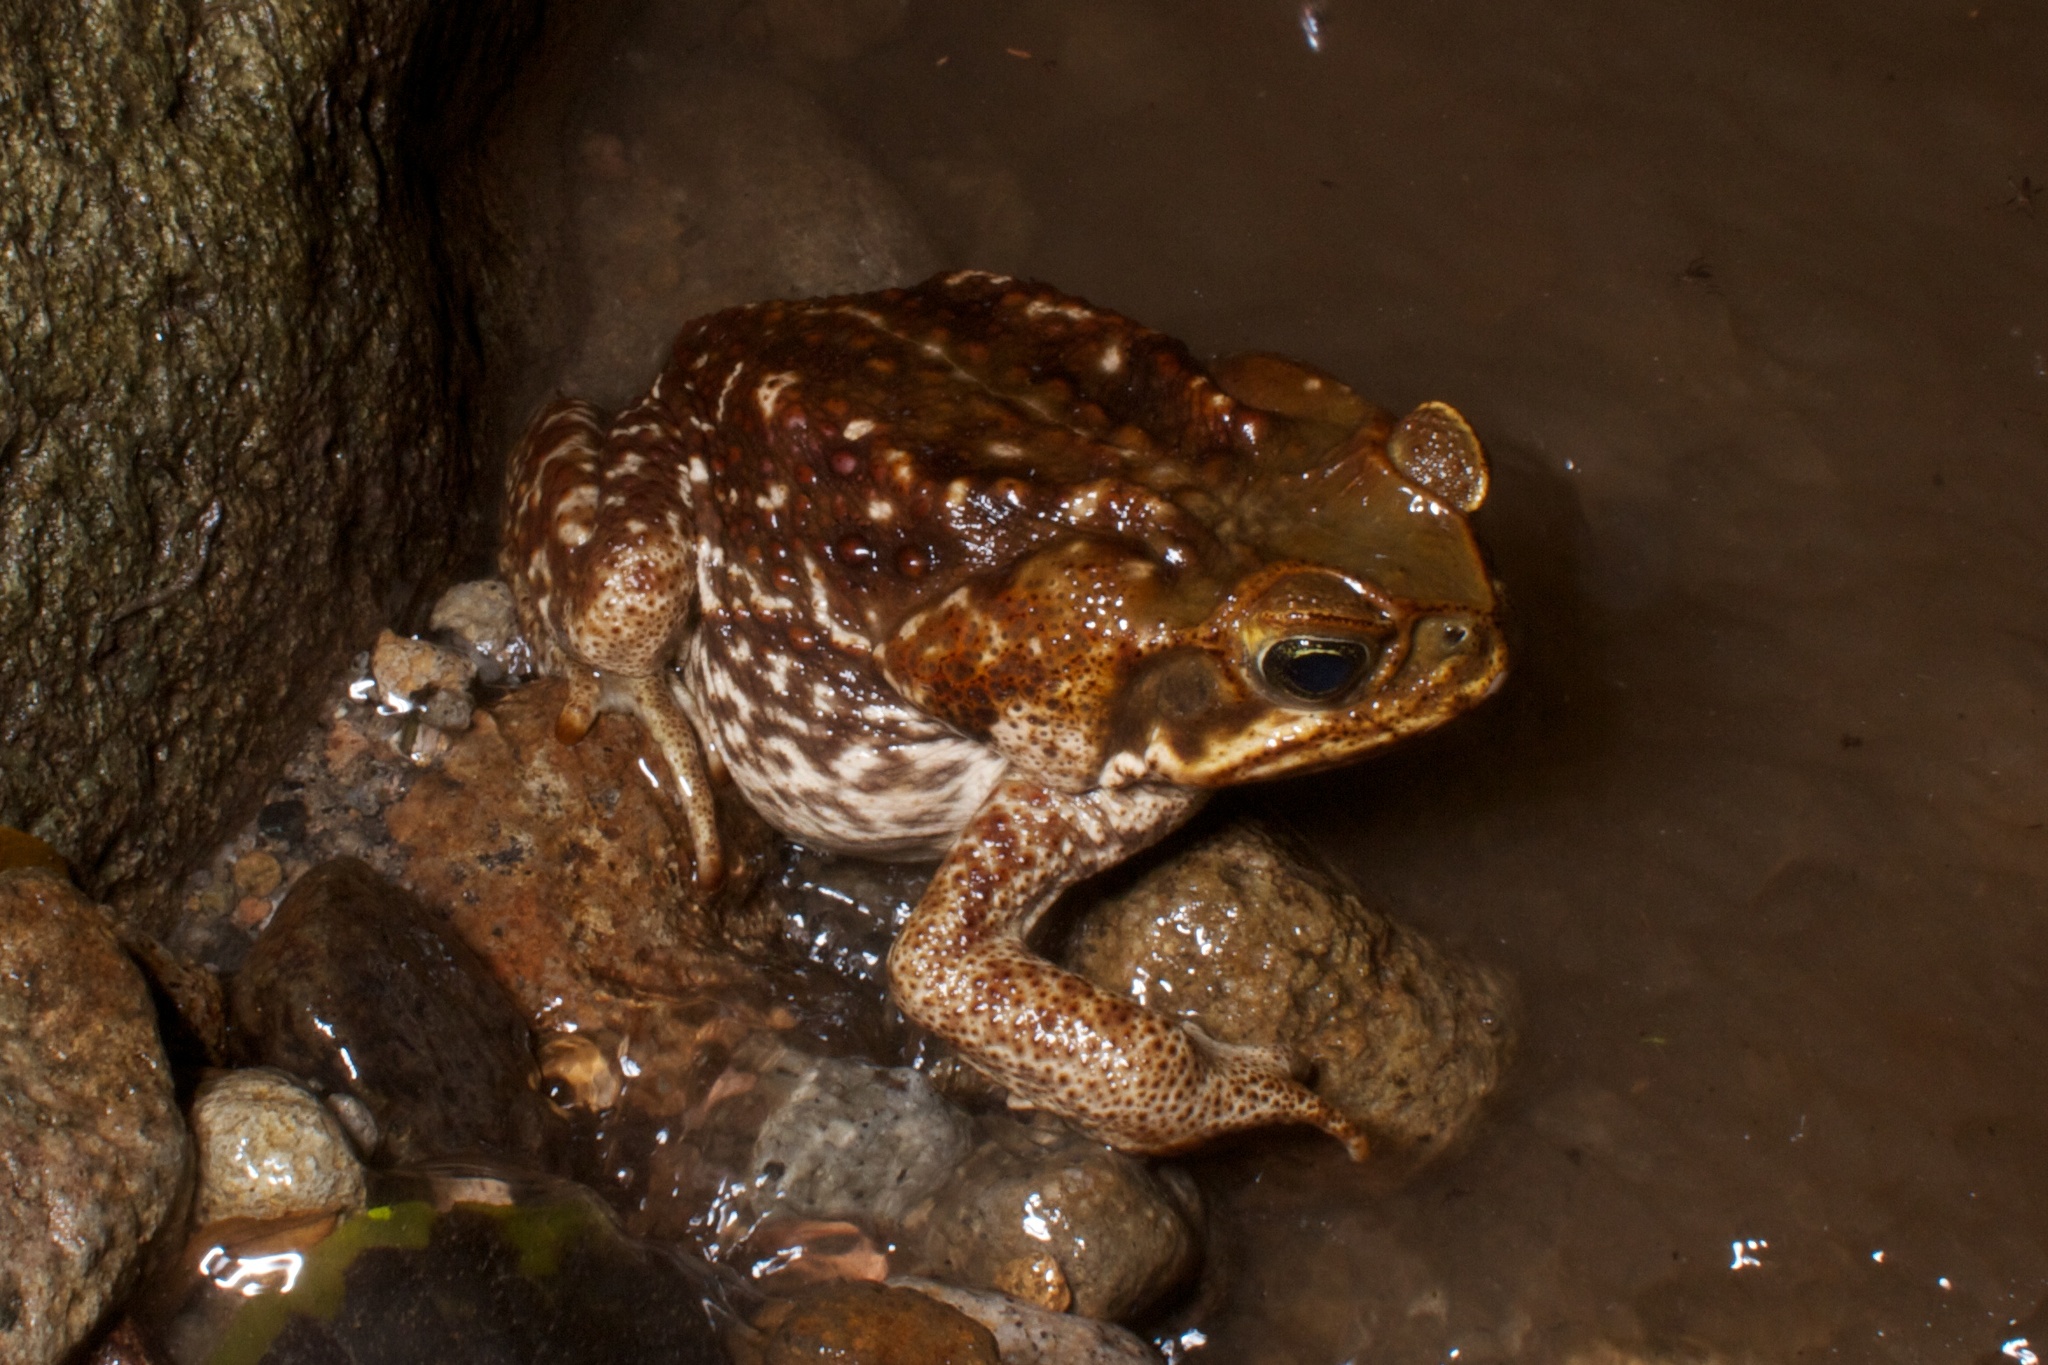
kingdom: Animalia
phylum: Chordata
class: Amphibia
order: Anura
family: Bufonidae
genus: Rhinella
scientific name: Rhinella horribilis
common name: Mesoamerican cane toad
